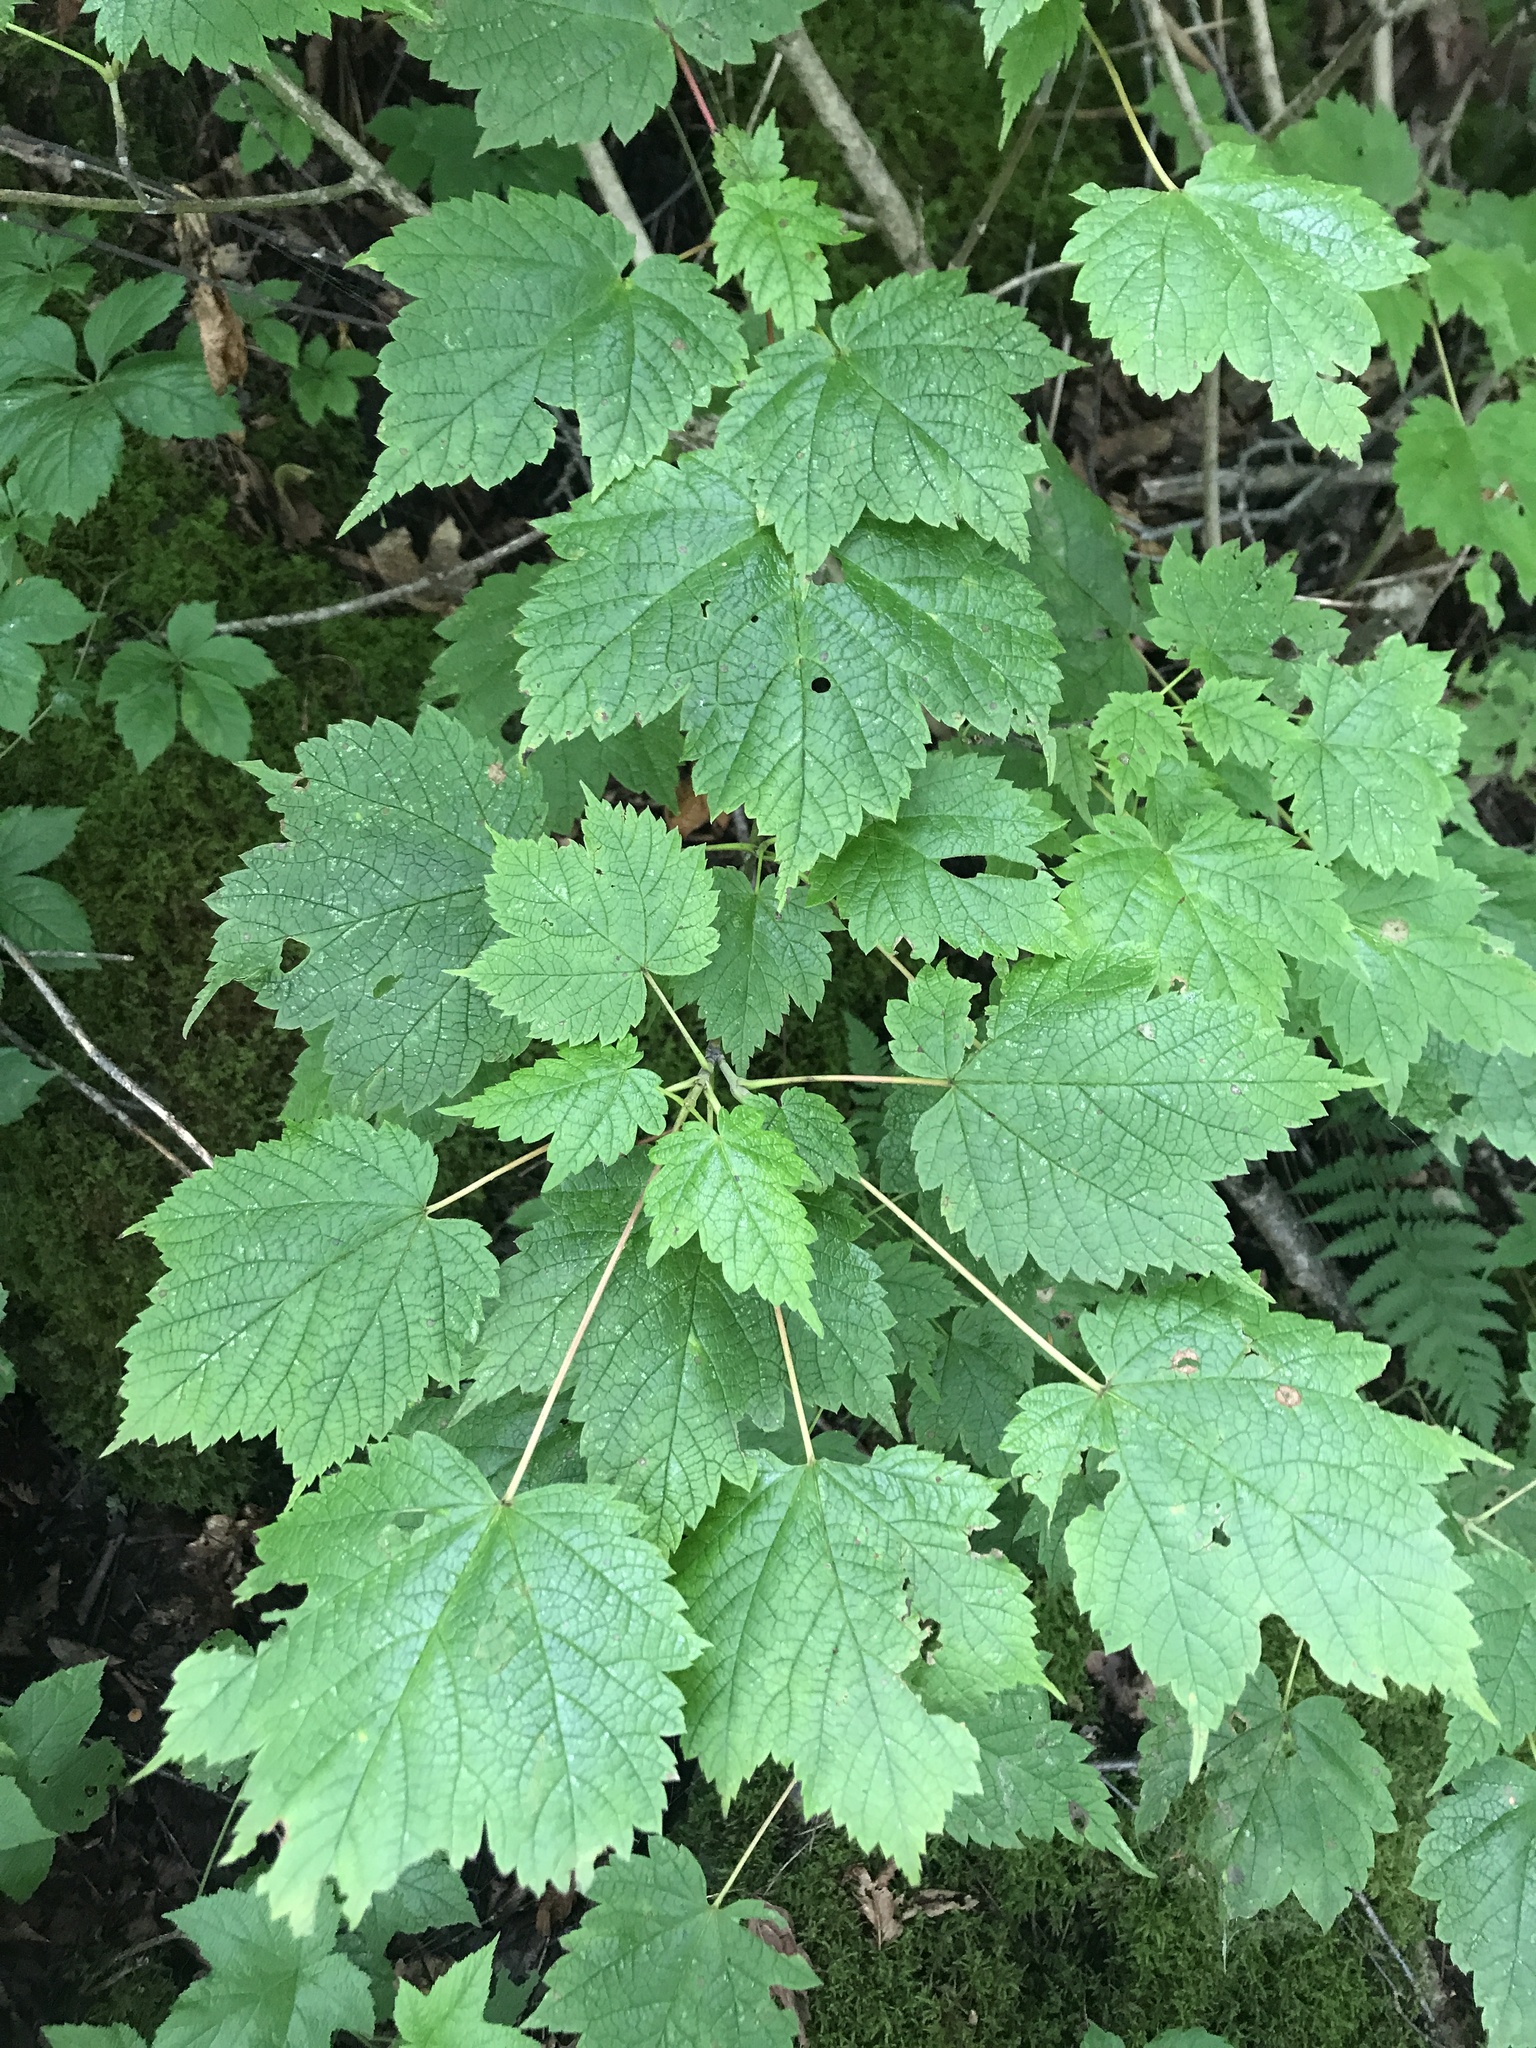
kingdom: Plantae
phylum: Tracheophyta
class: Magnoliopsida
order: Sapindales
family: Sapindaceae
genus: Acer
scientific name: Acer spicatum
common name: Mountain maple
